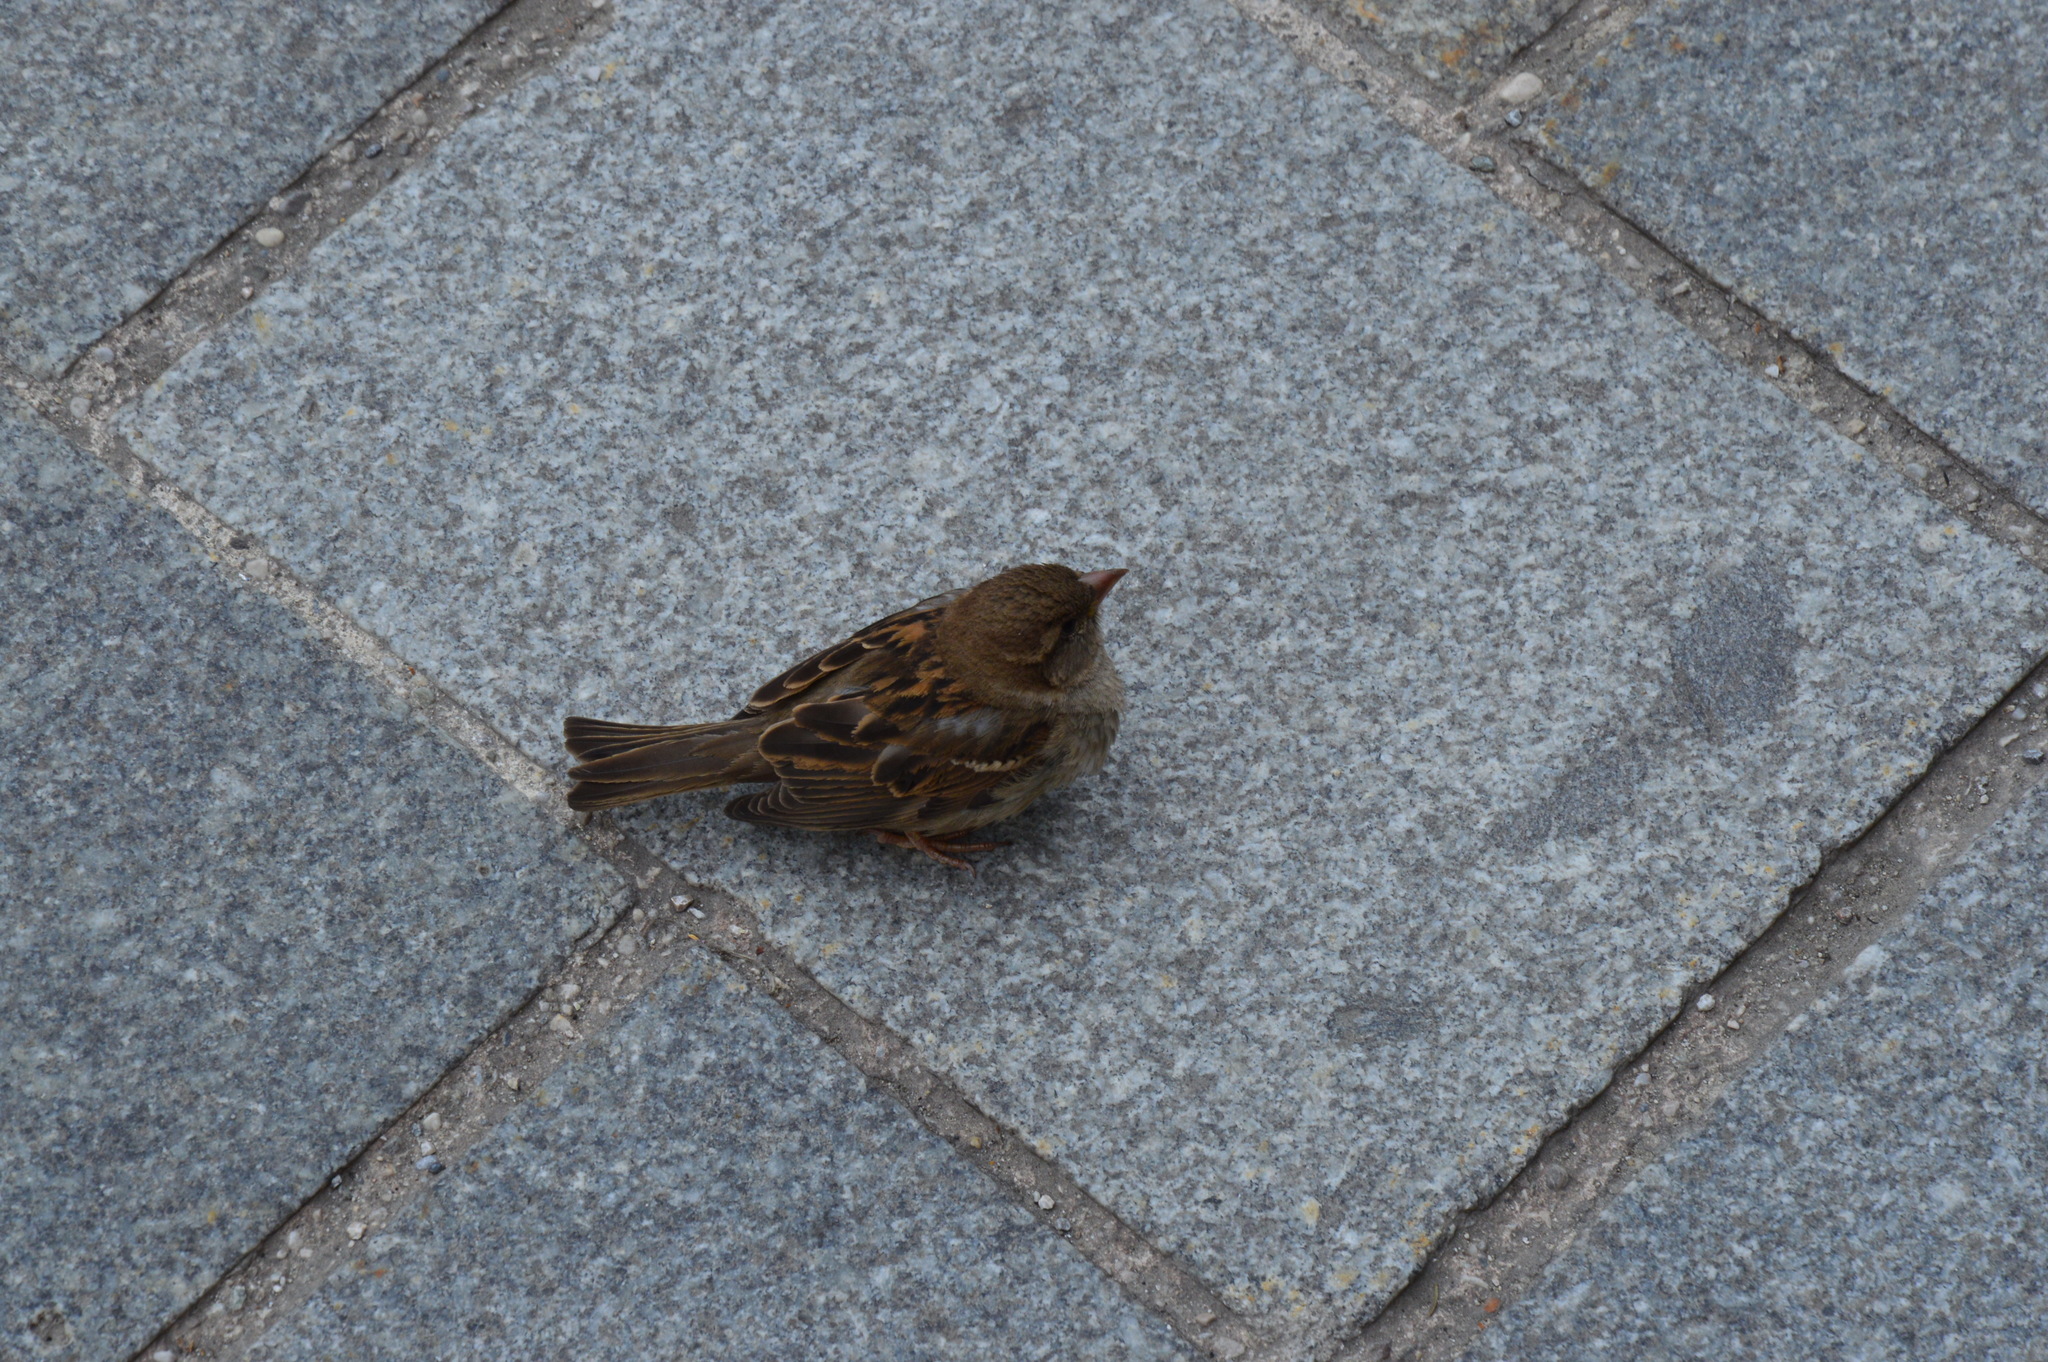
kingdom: Animalia
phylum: Chordata
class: Aves
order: Passeriformes
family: Passeridae
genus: Passer
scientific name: Passer domesticus
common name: House sparrow
